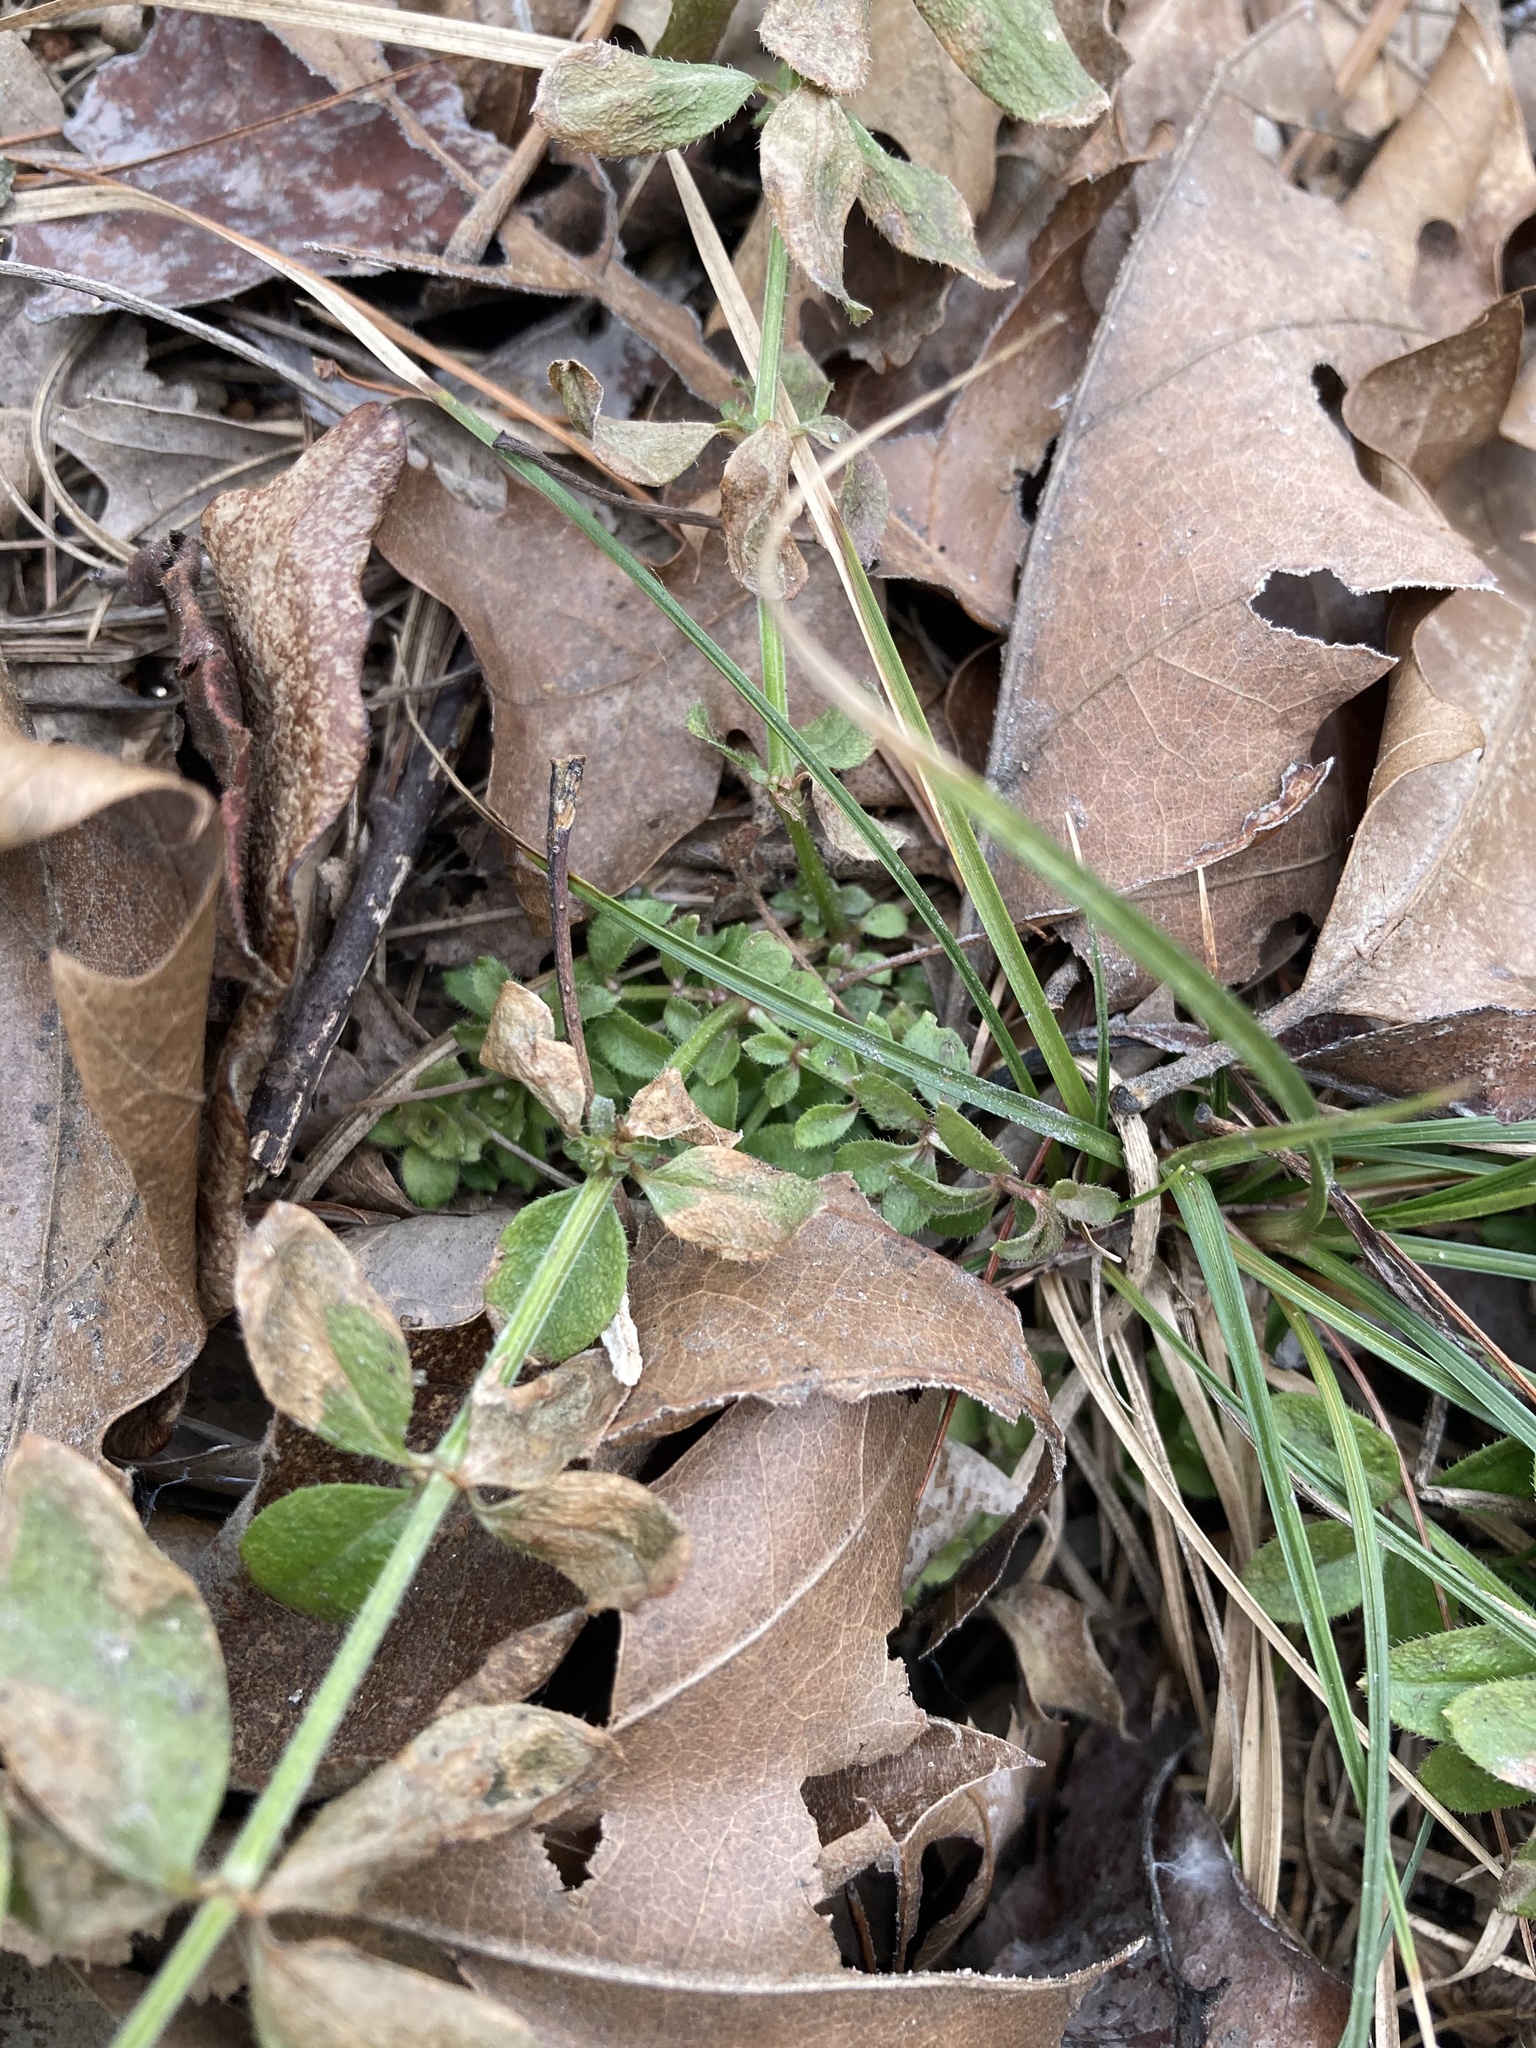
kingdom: Plantae
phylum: Tracheophyta
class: Magnoliopsida
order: Gentianales
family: Rubiaceae
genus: Galium
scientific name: Galium pilosum
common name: Hairy bedstraw
